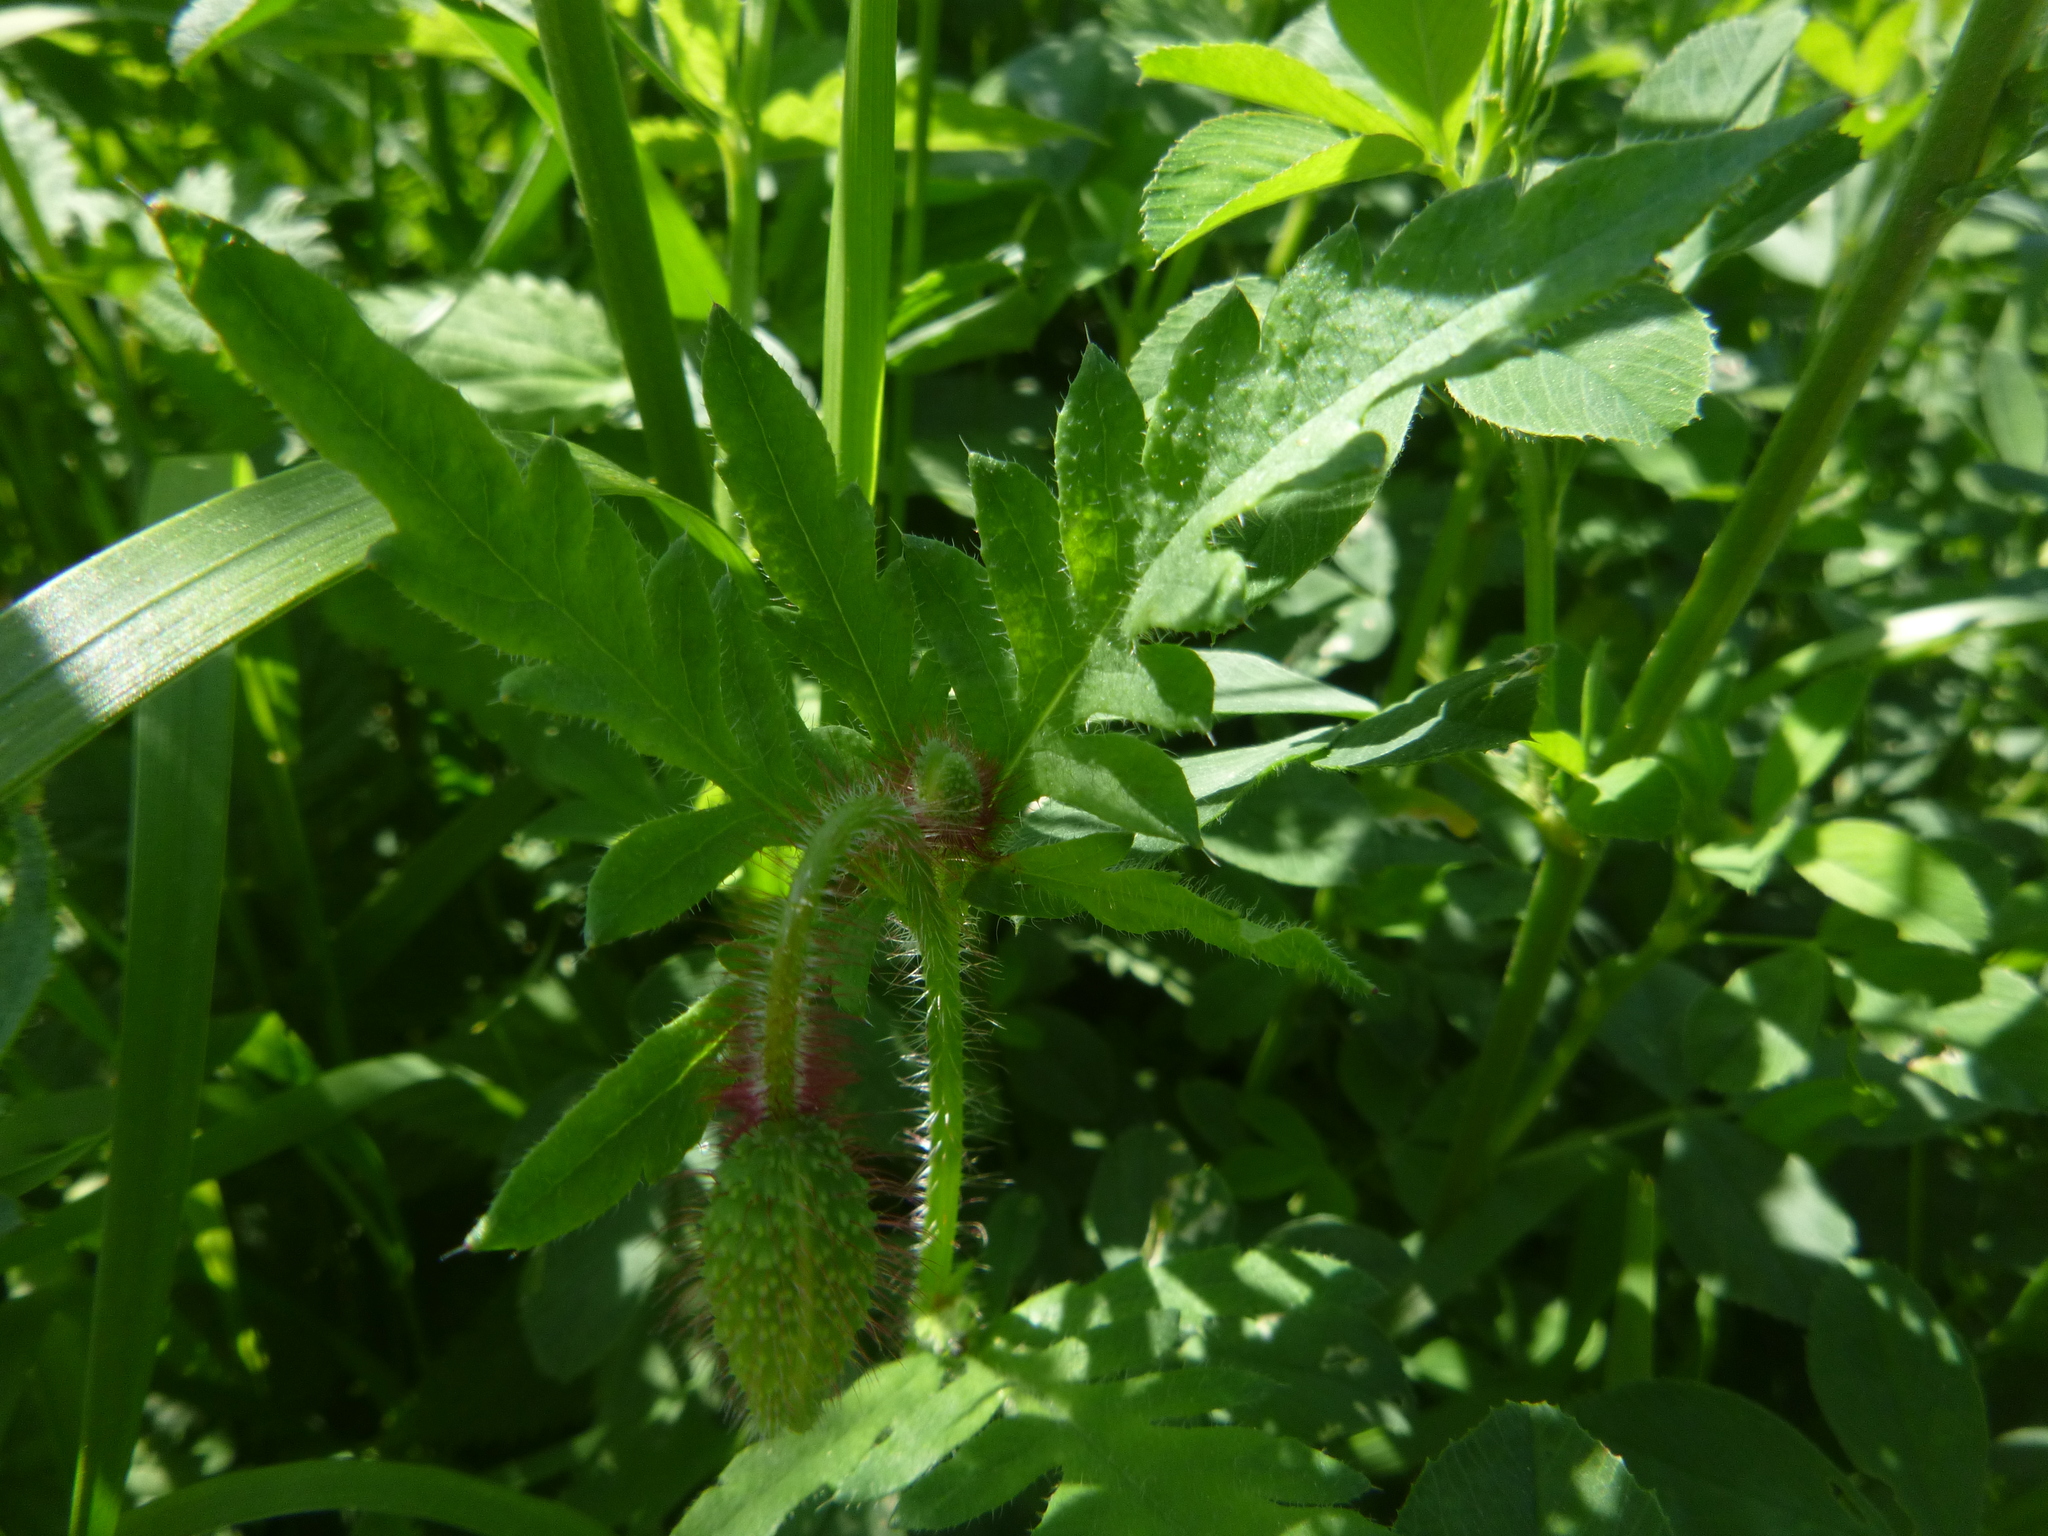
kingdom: Plantae
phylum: Tracheophyta
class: Magnoliopsida
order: Ranunculales
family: Papaveraceae
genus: Papaver
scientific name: Papaver rhoeas
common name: Corn poppy
